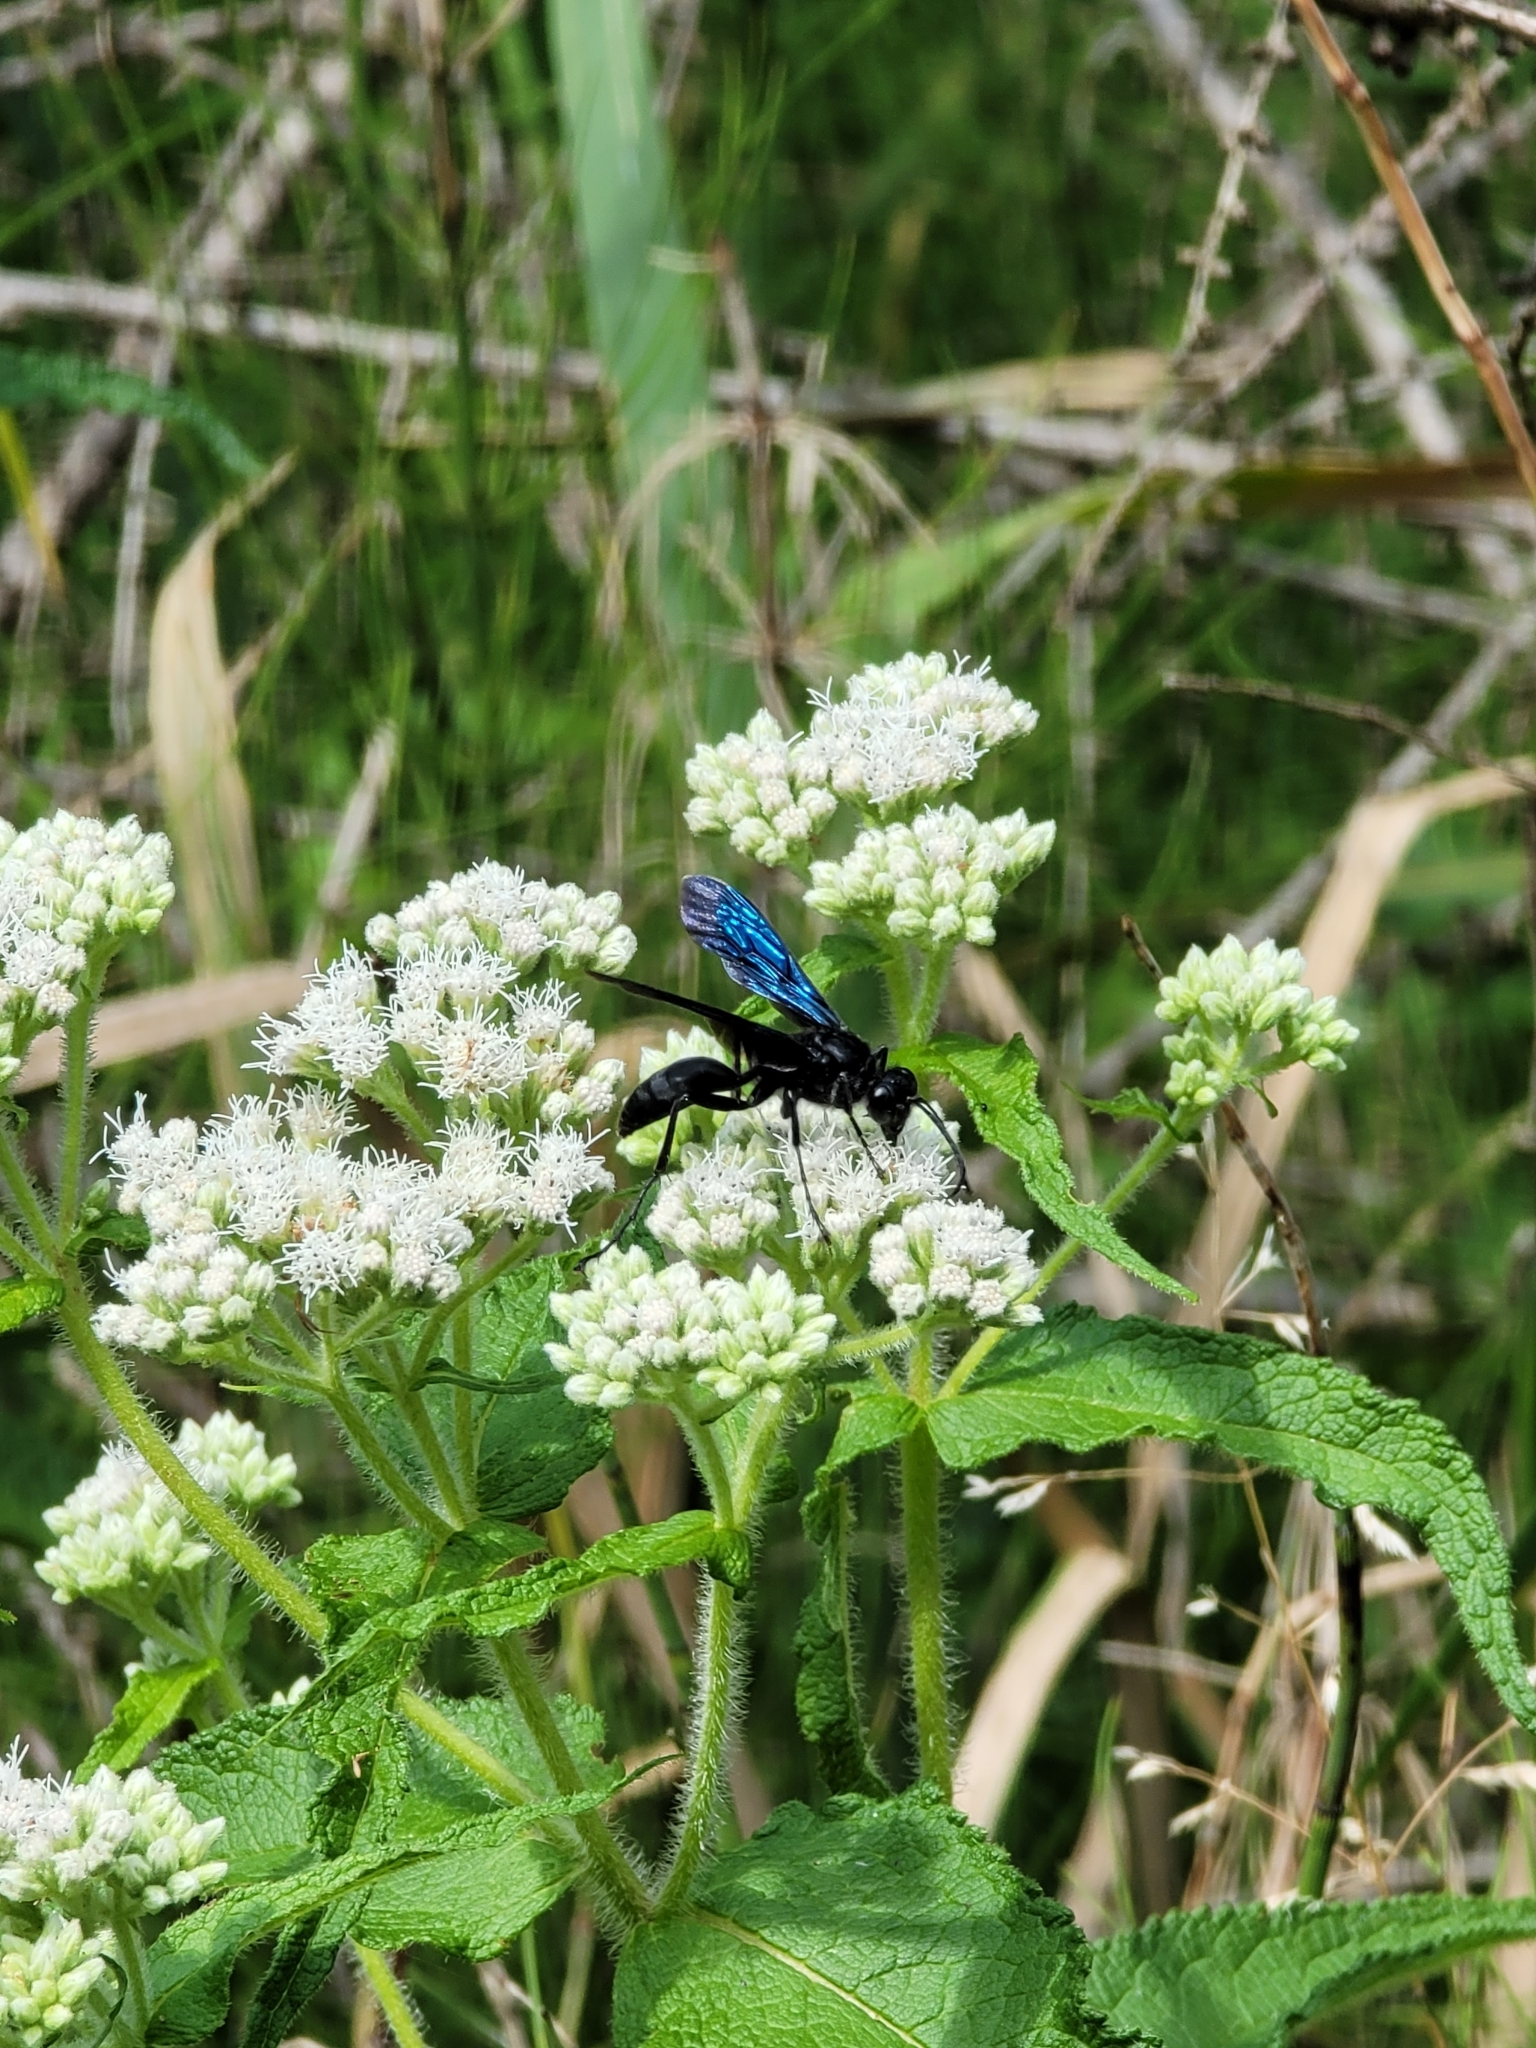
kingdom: Animalia
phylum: Arthropoda
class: Insecta
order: Hymenoptera
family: Sphecidae
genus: Sphex
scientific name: Sphex pensylvanicus
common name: Great black digger wasp
